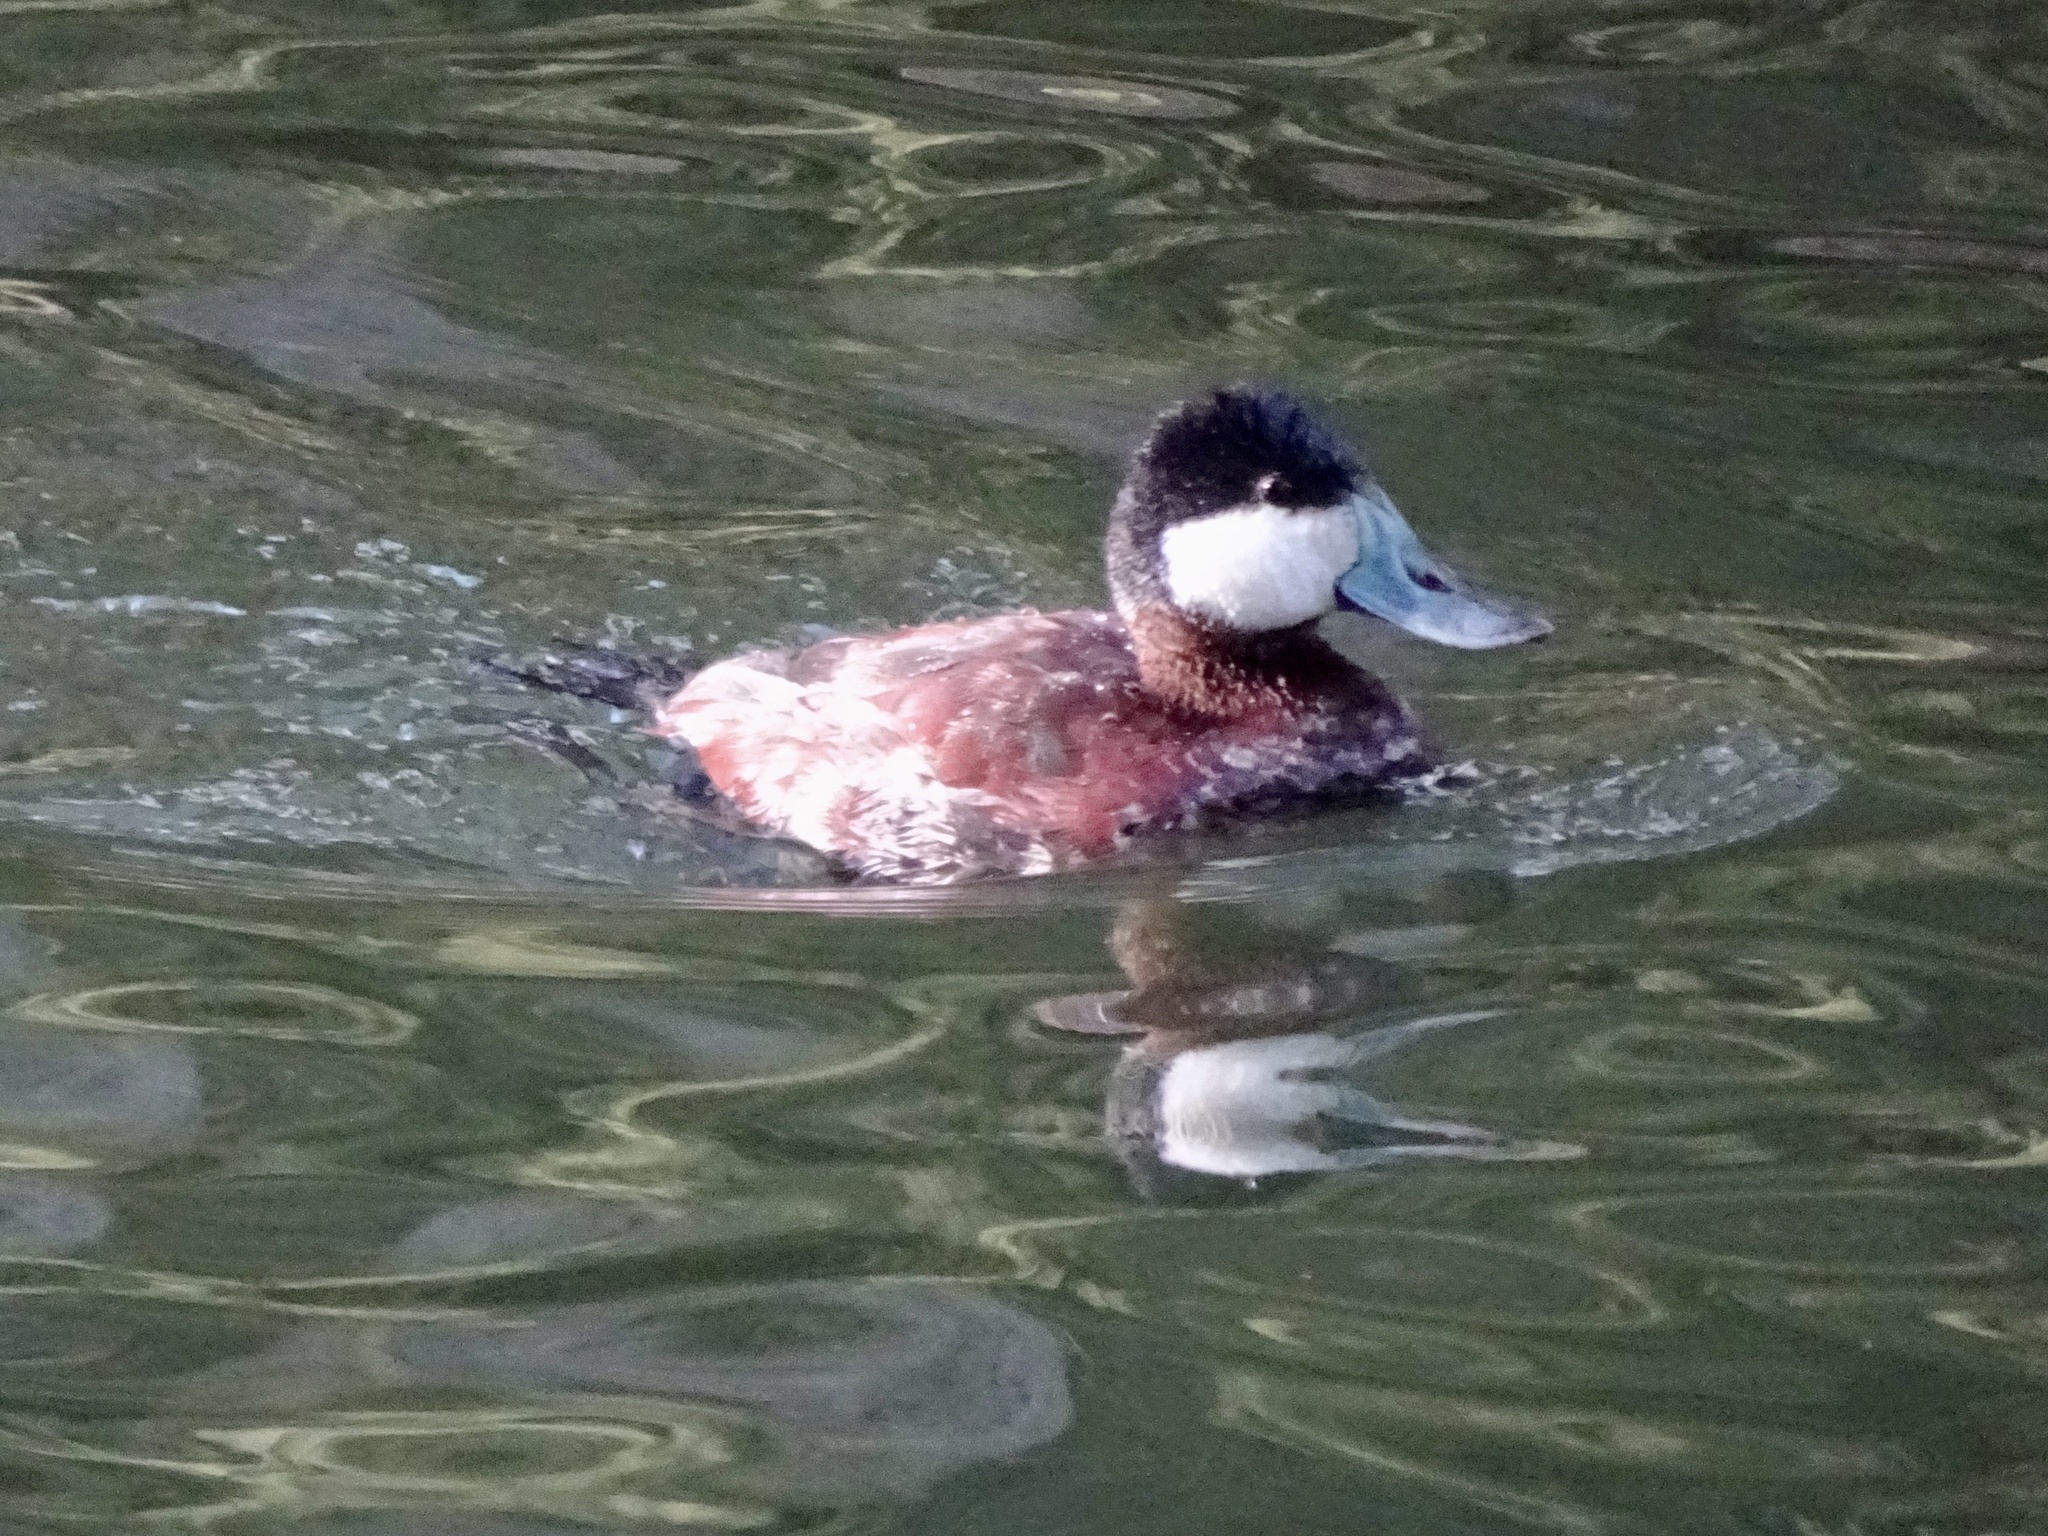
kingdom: Animalia
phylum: Chordata
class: Aves
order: Anseriformes
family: Anatidae
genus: Oxyura
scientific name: Oxyura jamaicensis
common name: Ruddy duck
